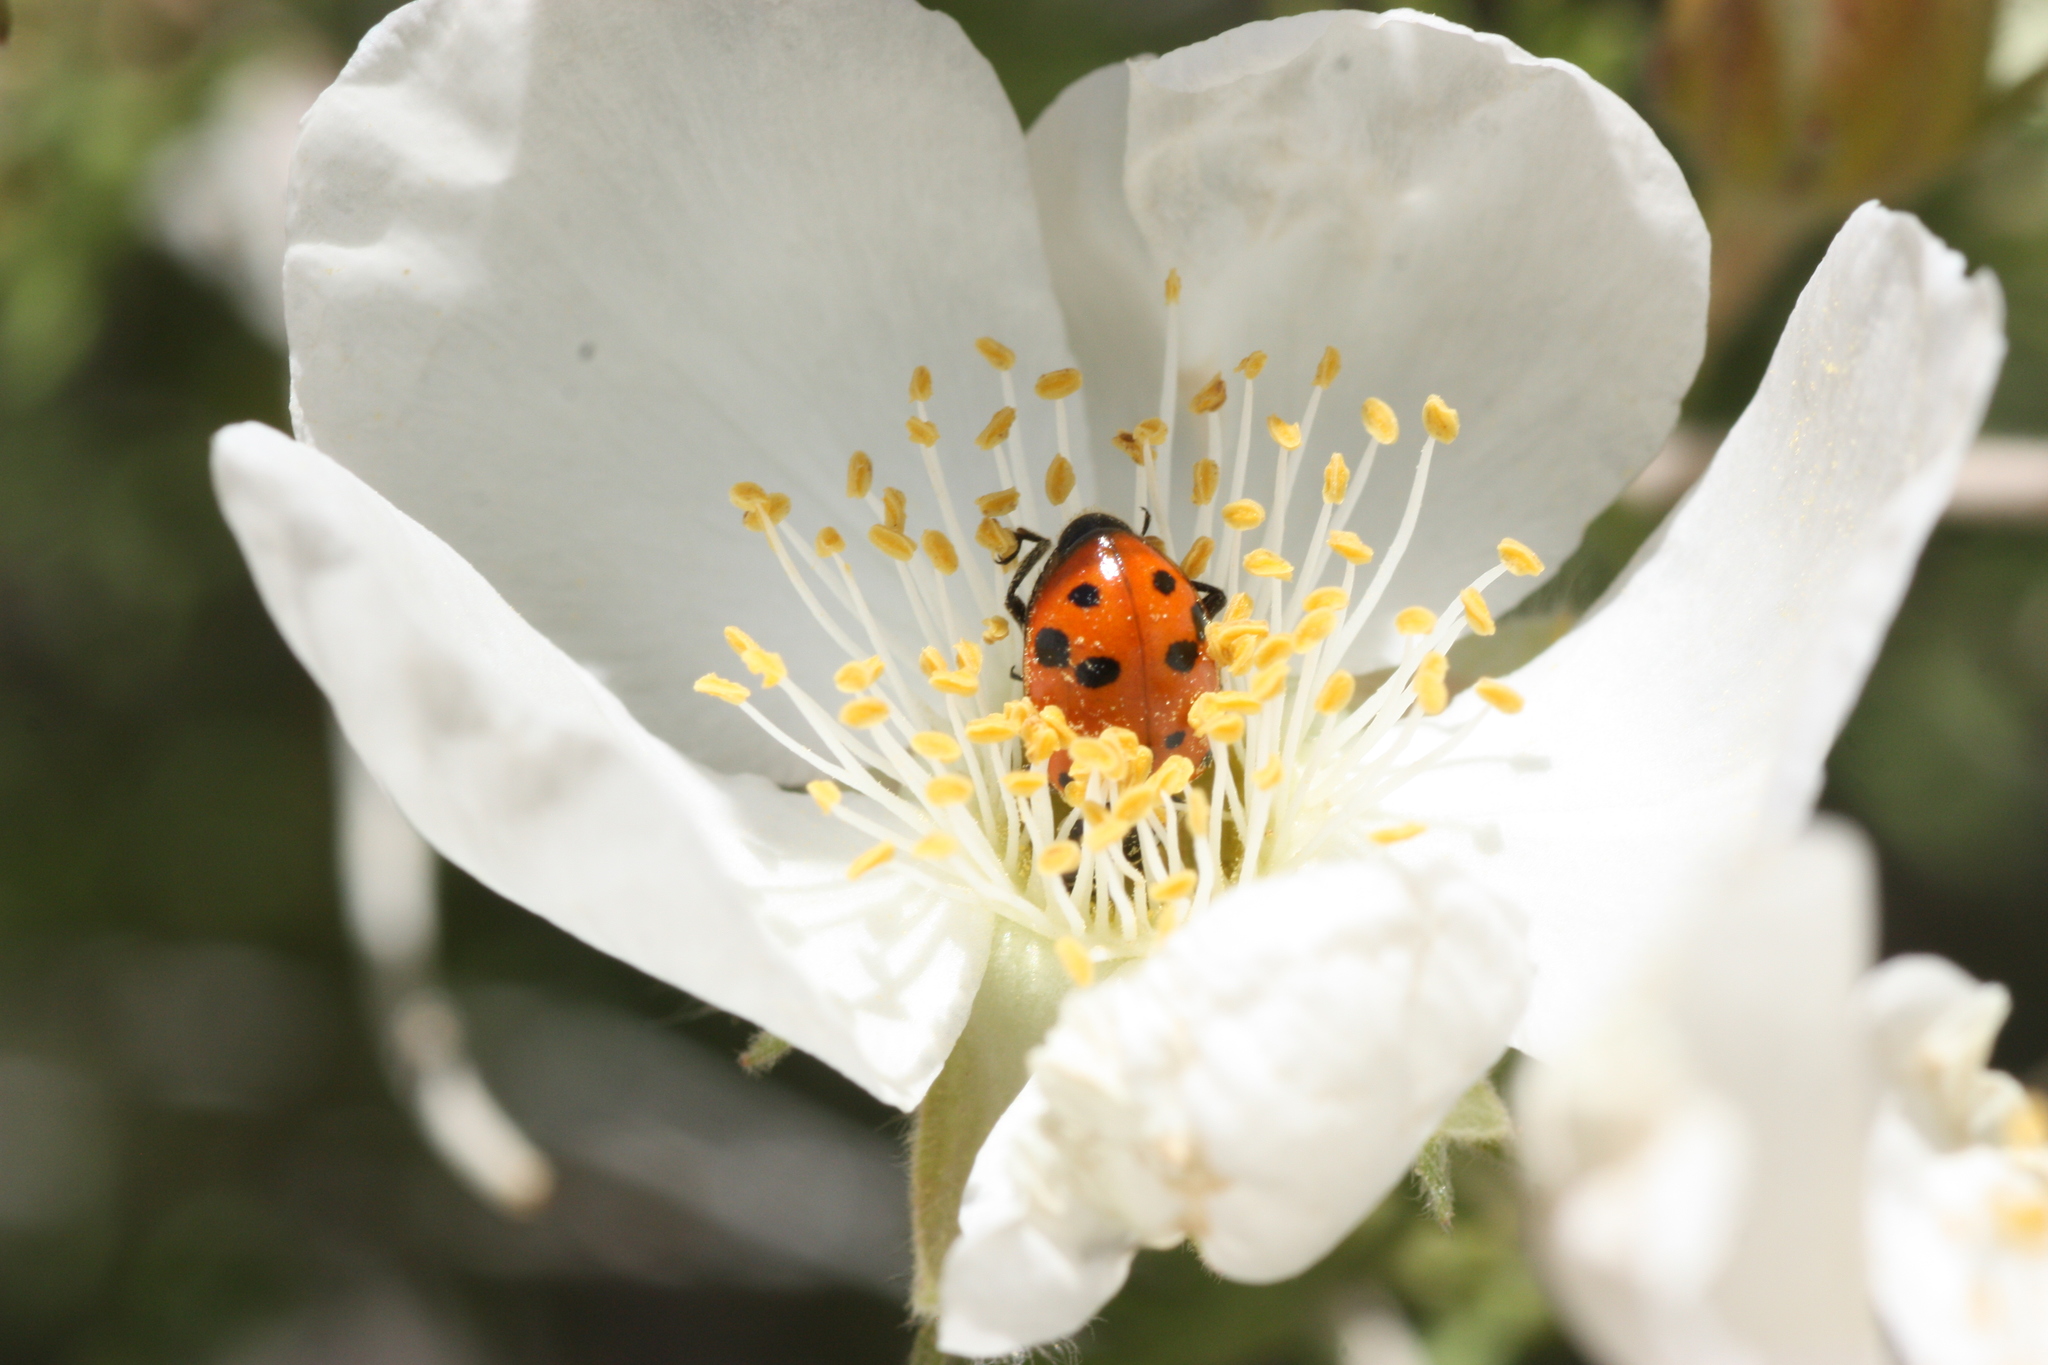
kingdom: Animalia
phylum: Arthropoda
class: Insecta
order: Coleoptera
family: Coccinellidae
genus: Hippodamia
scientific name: Hippodamia convergens
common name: Convergent lady beetle
